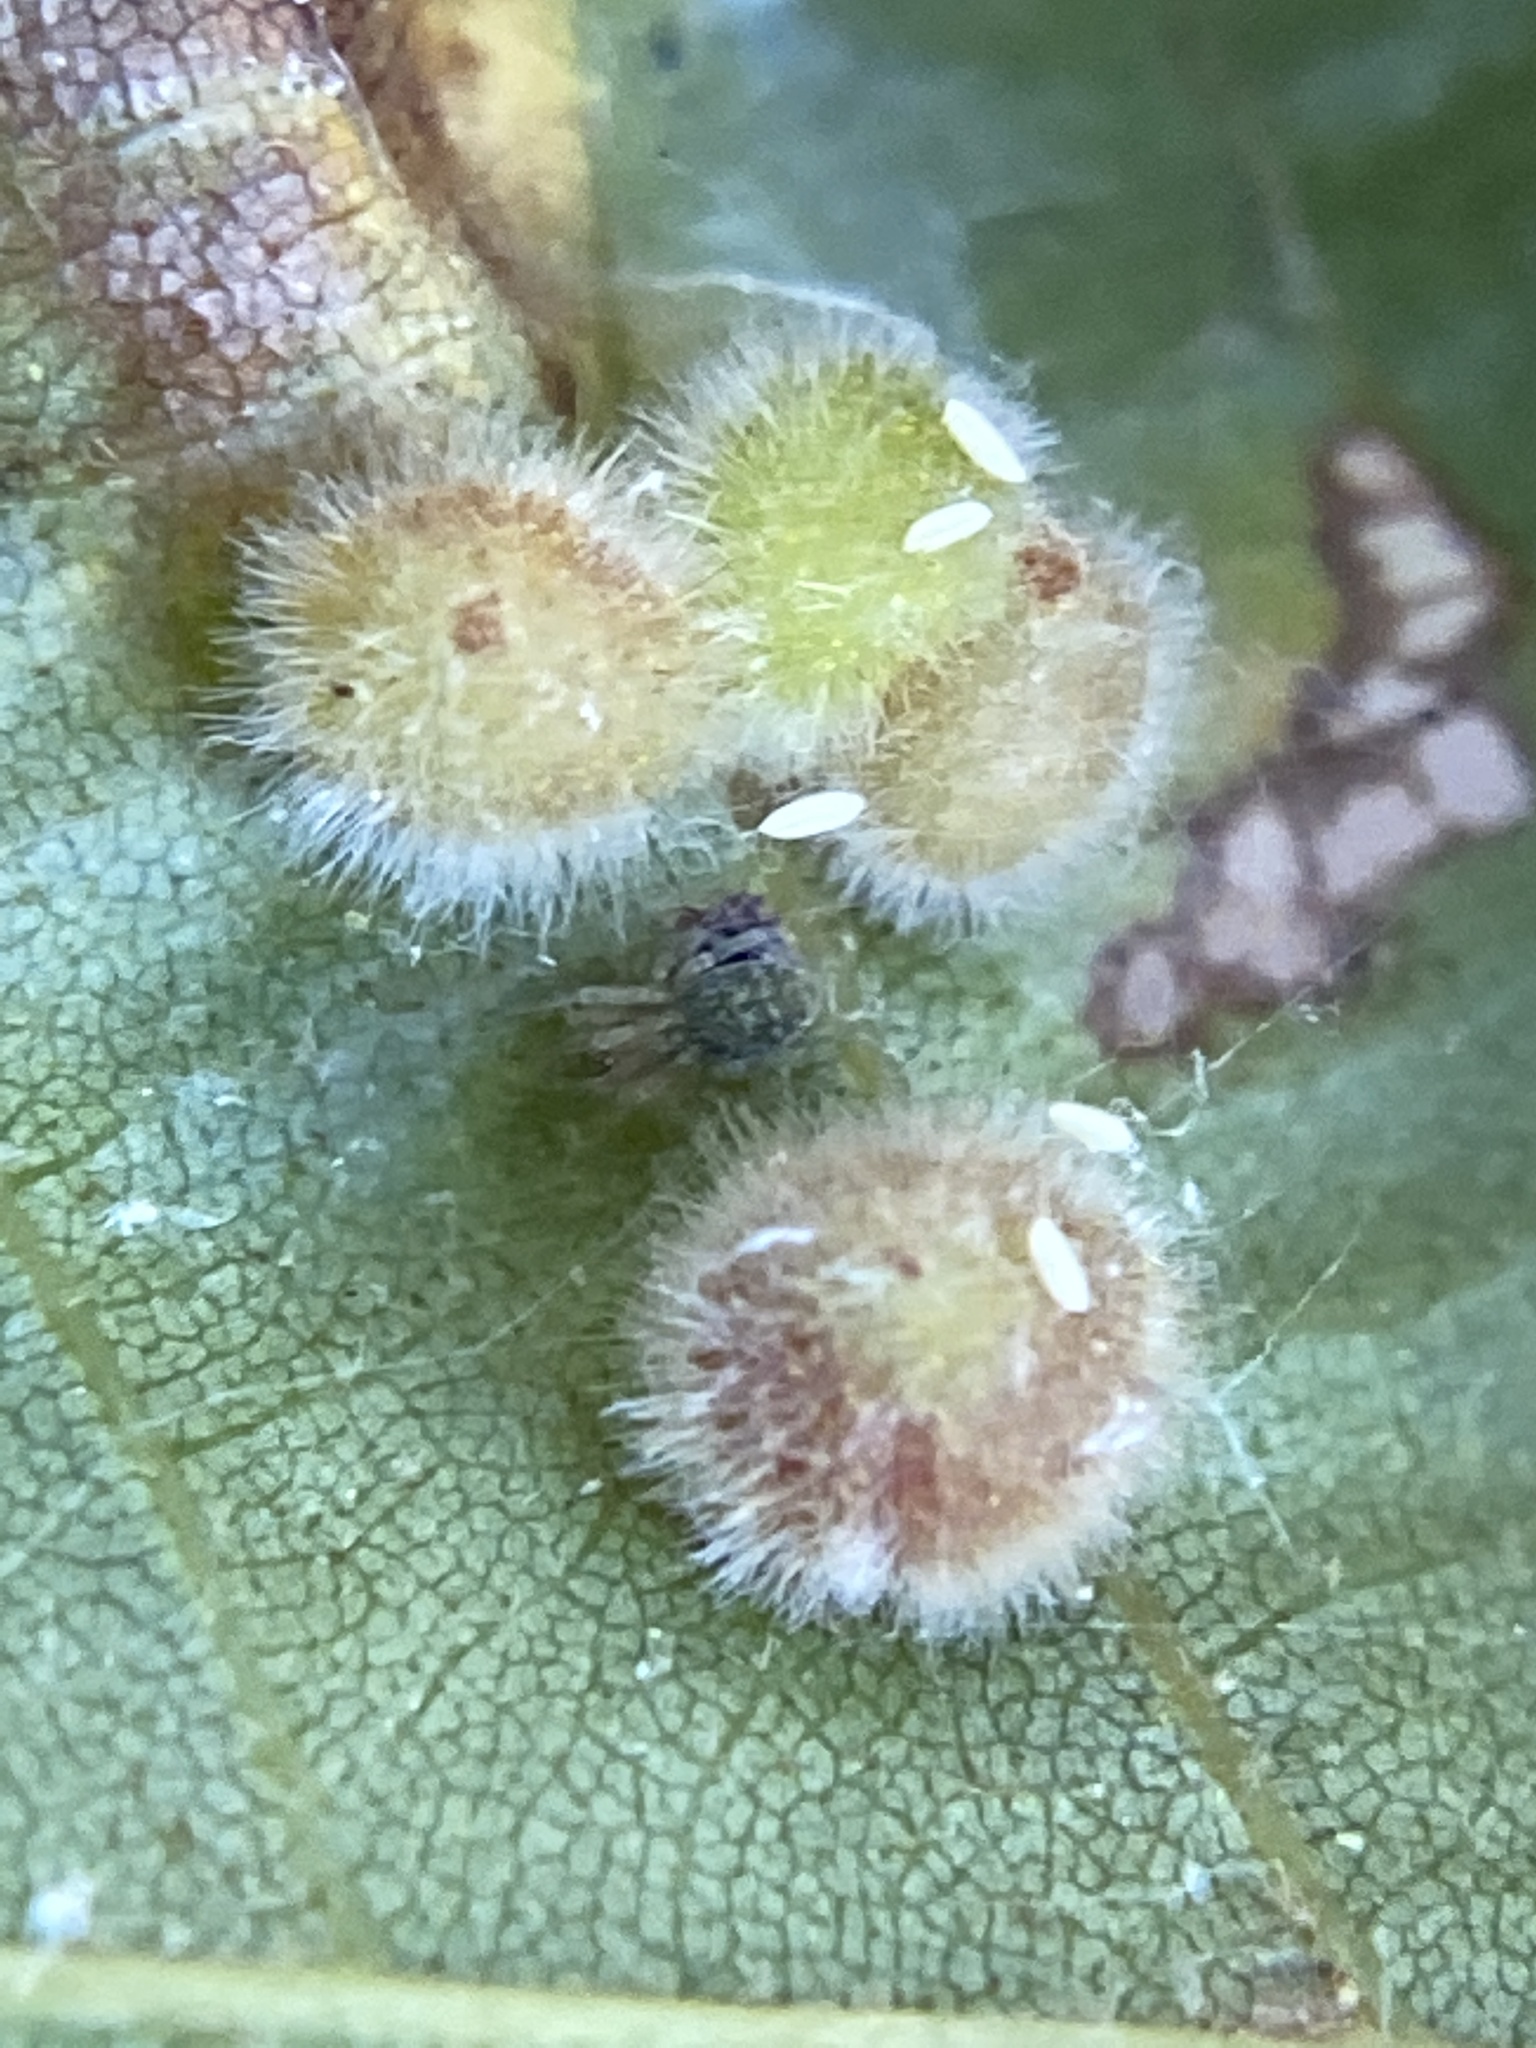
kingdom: Animalia
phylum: Arthropoda
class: Insecta
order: Diptera
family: Cecidomyiidae
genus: Caryomyia
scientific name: Caryomyia purpurea
